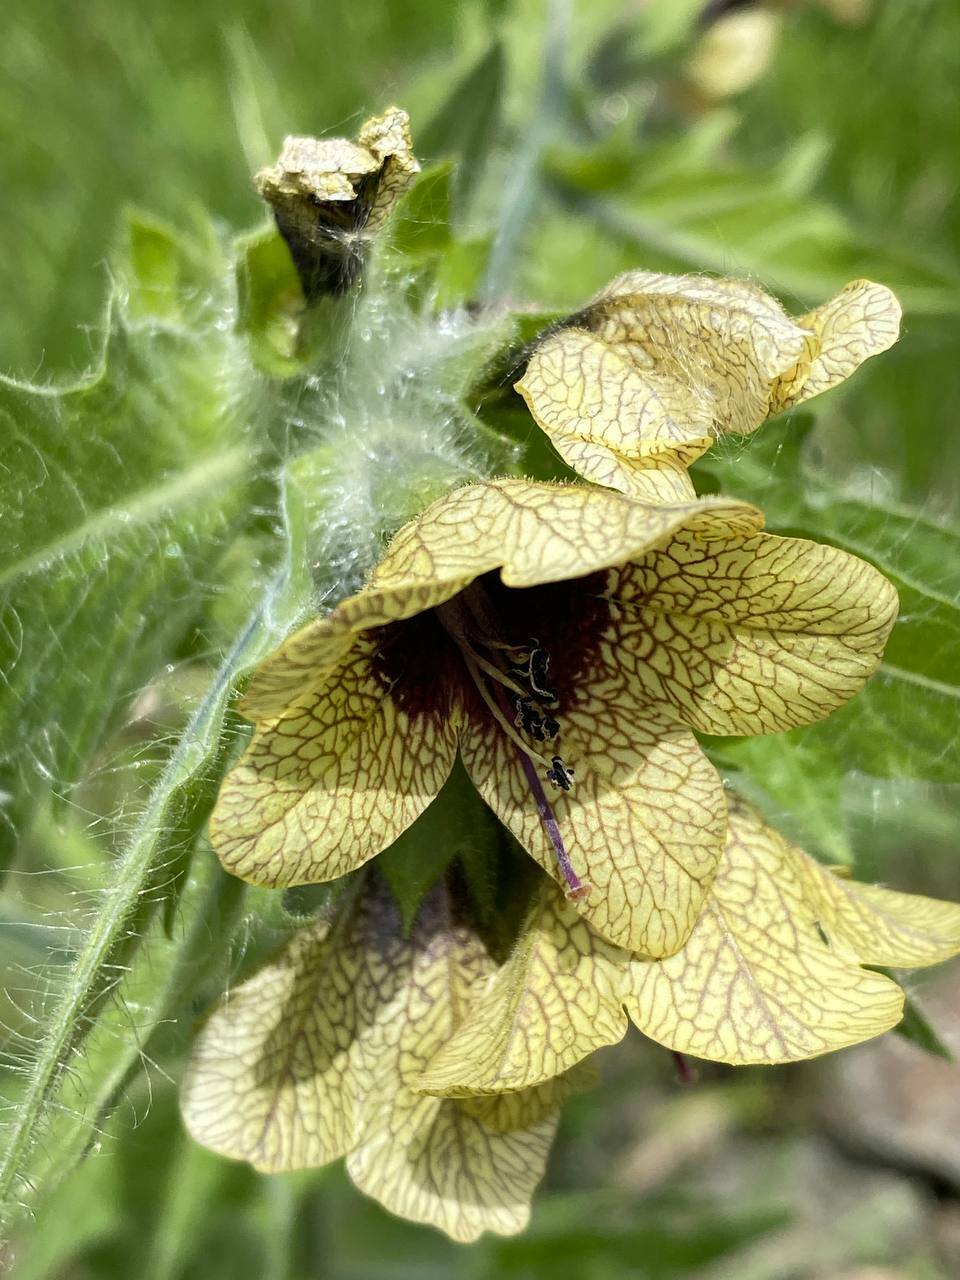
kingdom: Plantae
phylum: Tracheophyta
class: Magnoliopsida
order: Solanales
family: Solanaceae
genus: Hyoscyamus
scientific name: Hyoscyamus niger
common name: Henbane
